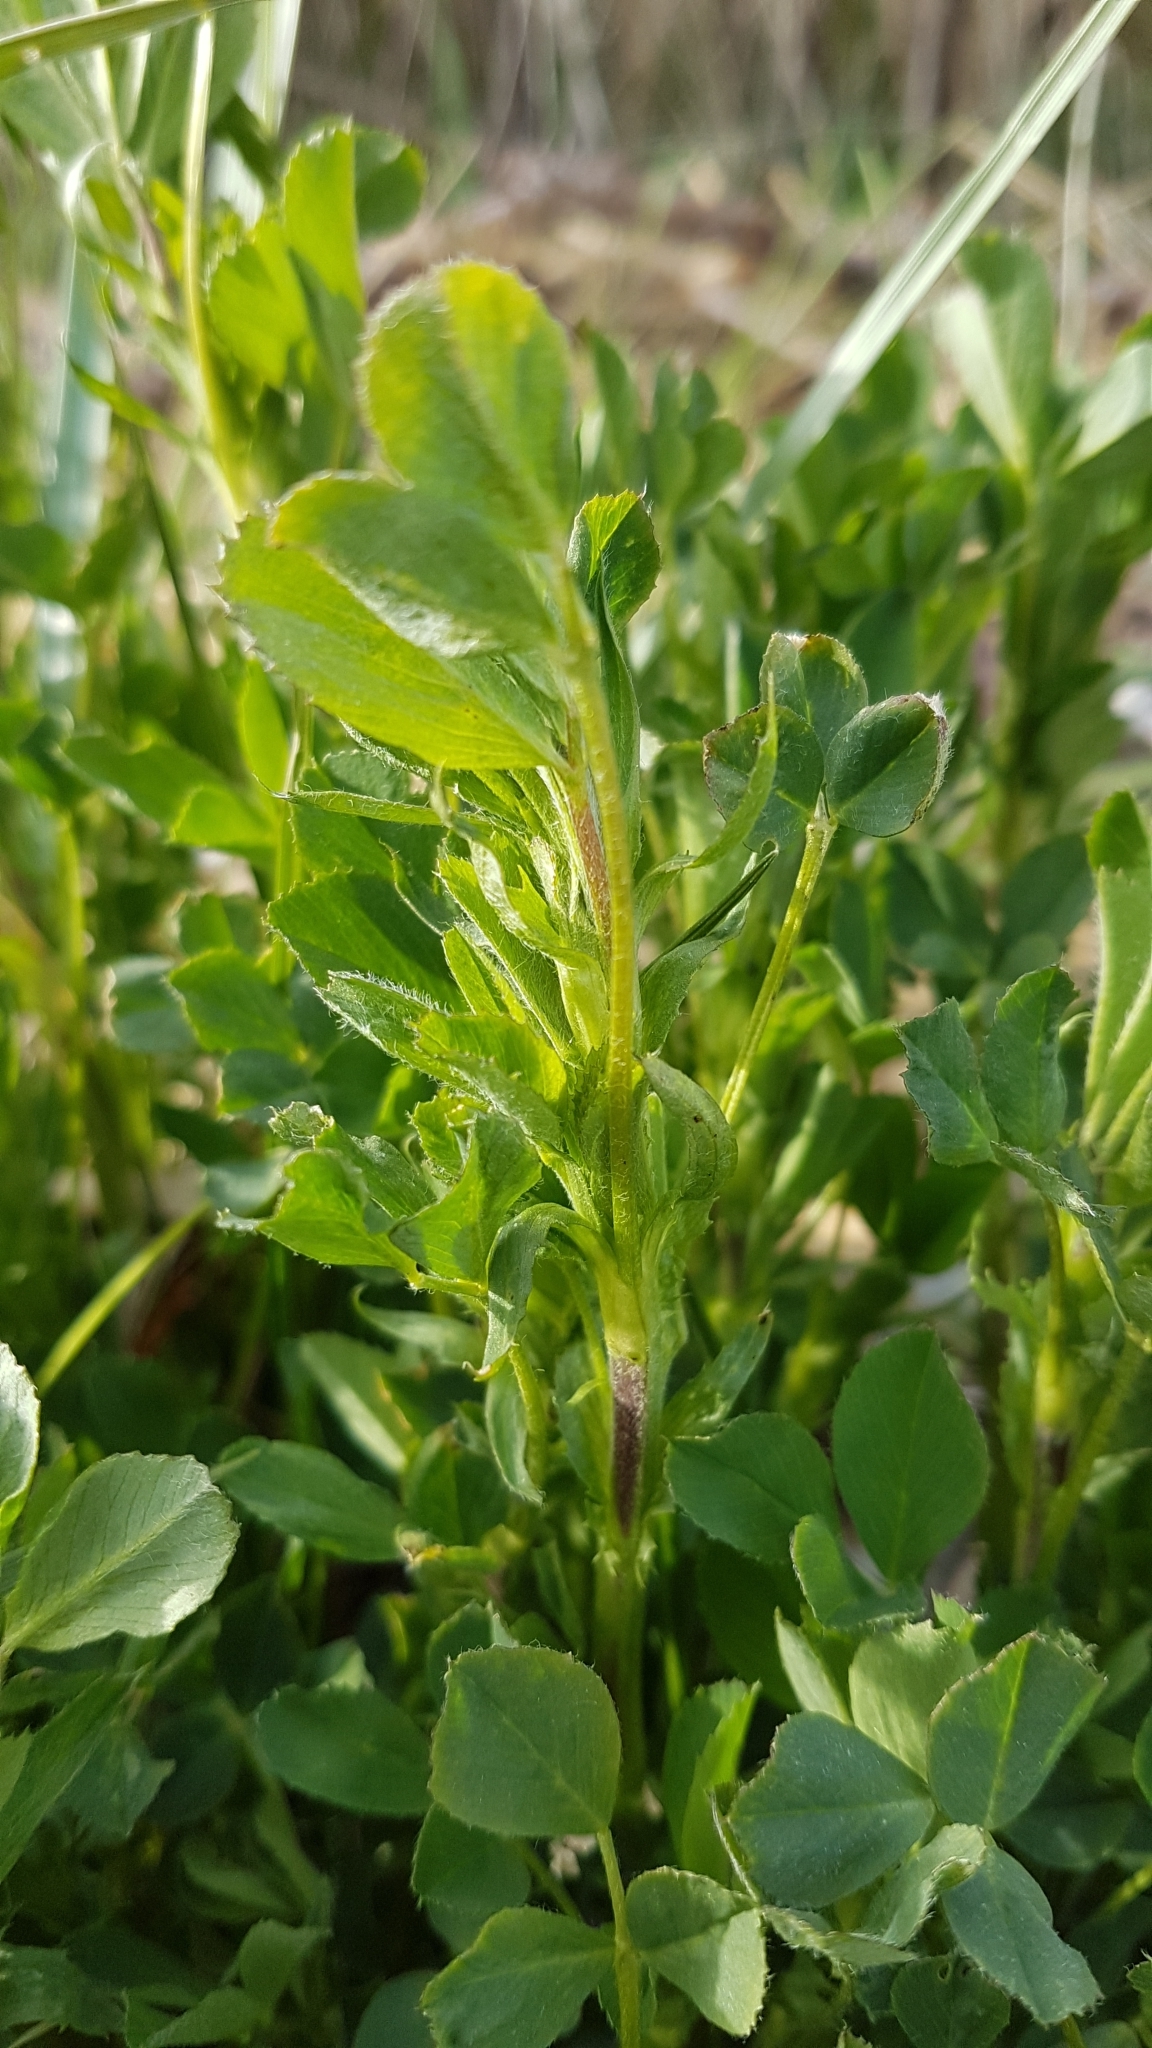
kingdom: Plantae
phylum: Tracheophyta
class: Magnoliopsida
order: Fabales
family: Fabaceae
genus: Medicago
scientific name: Medicago sativa
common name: Alfalfa
